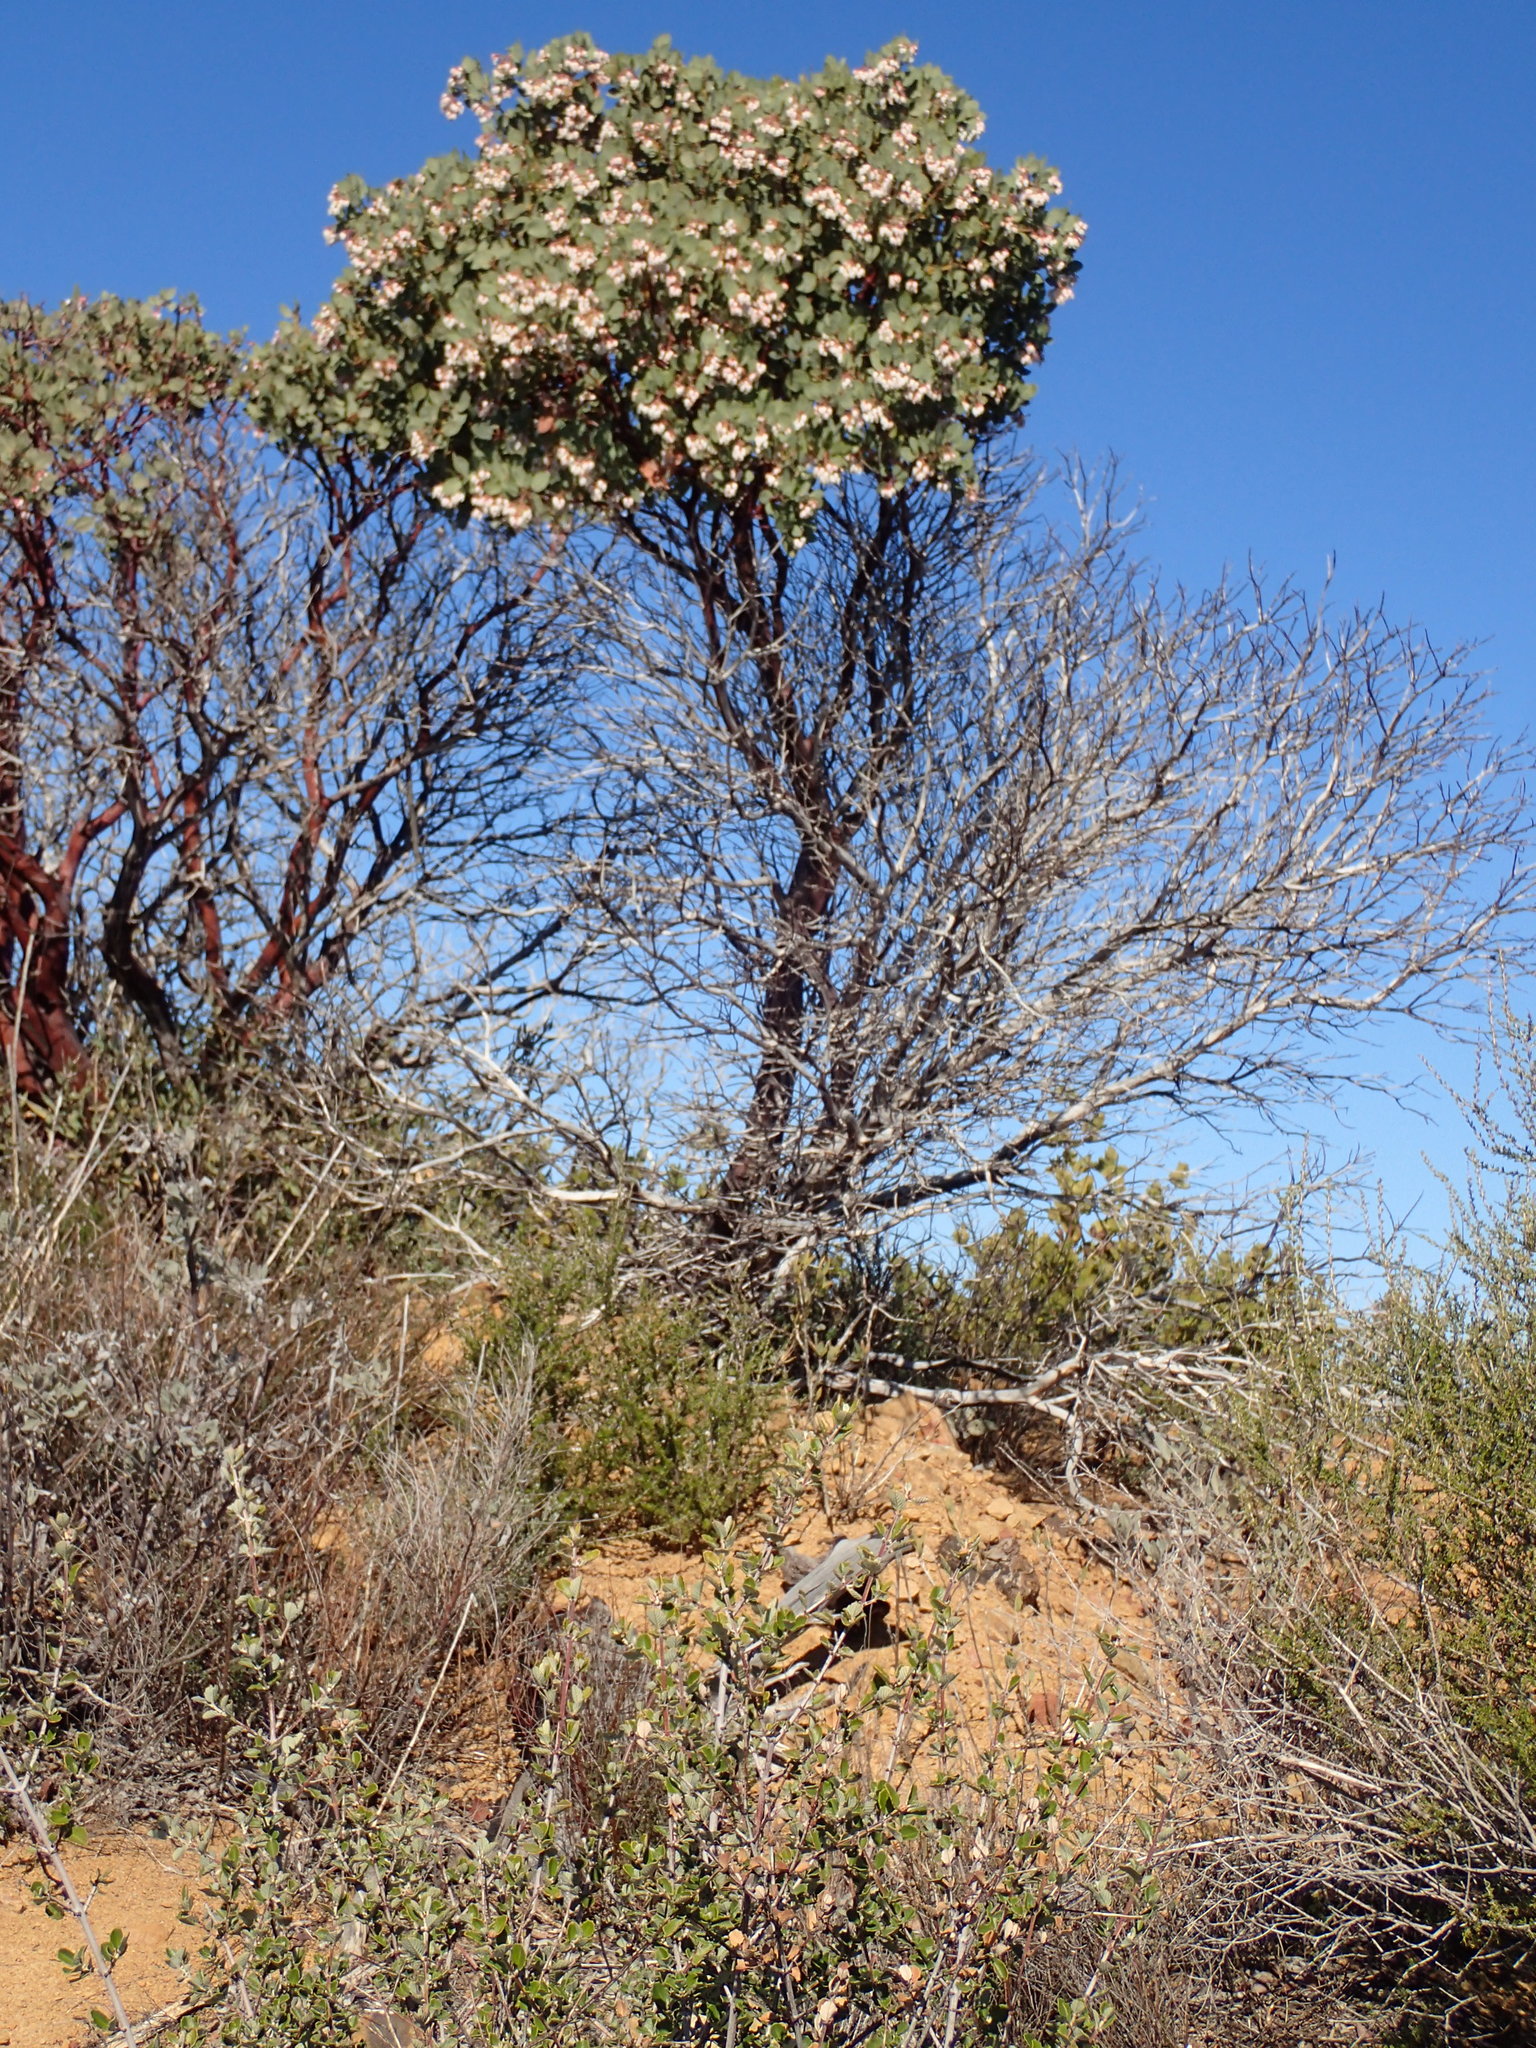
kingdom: Plantae
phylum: Tracheophyta
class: Magnoliopsida
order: Ericales
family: Ericaceae
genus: Arctostaphylos
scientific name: Arctostaphylos glauca
